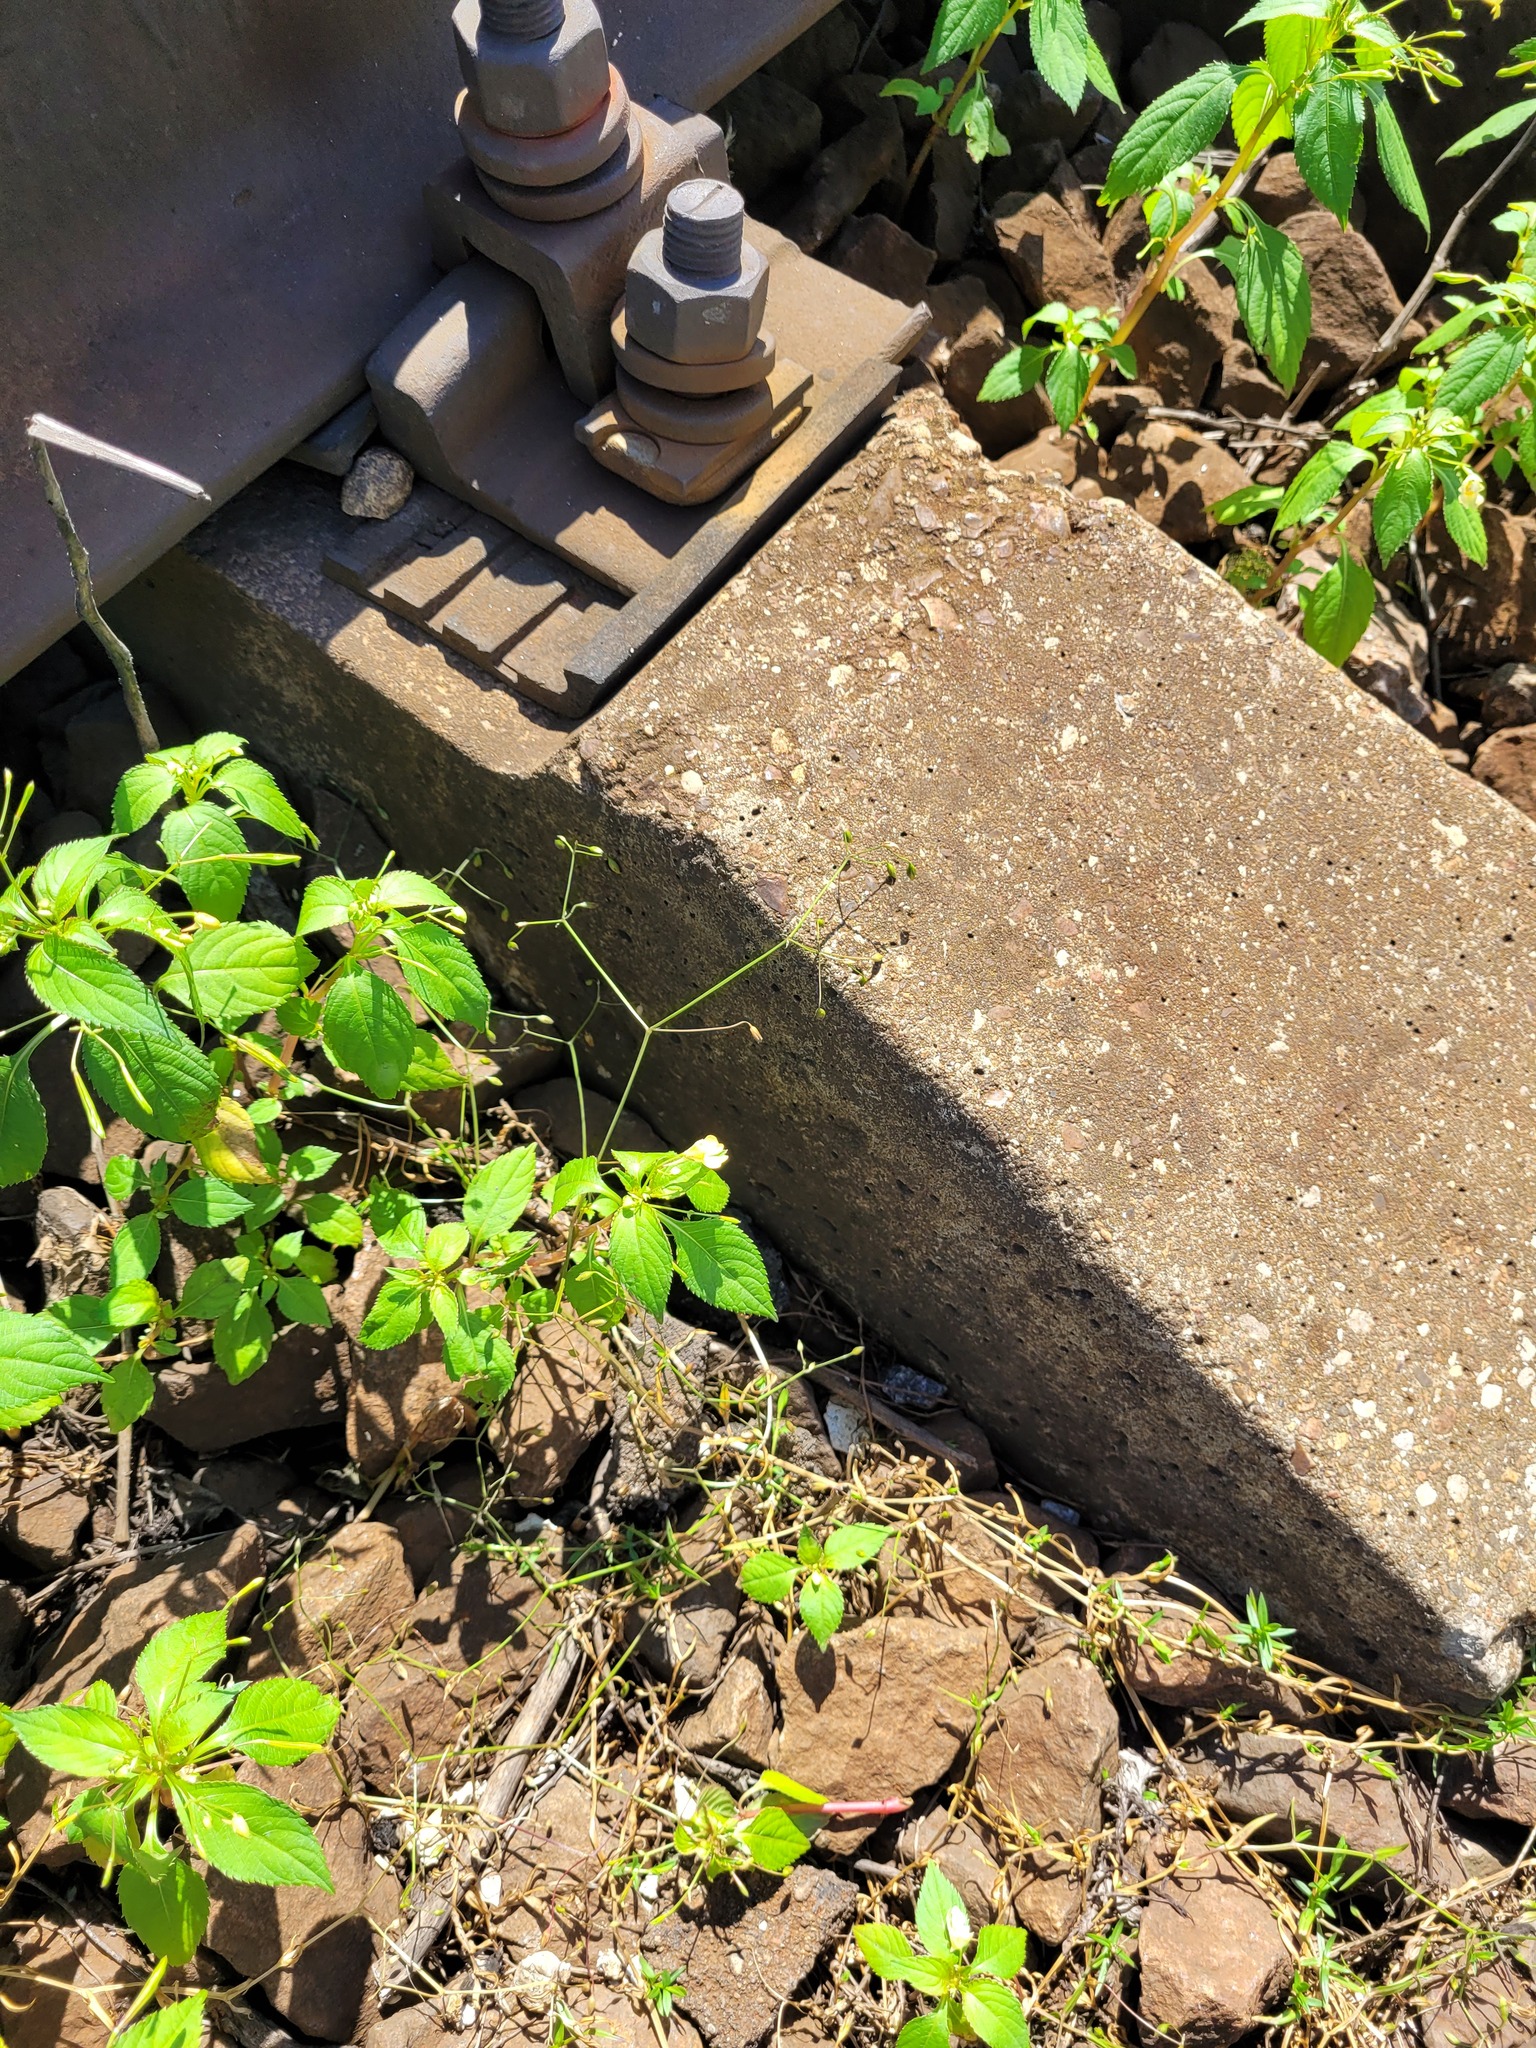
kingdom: Plantae
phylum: Tracheophyta
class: Magnoliopsida
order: Caryophyllales
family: Caryophyllaceae
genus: Stellaria
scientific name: Stellaria graminea
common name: Grass-like starwort
